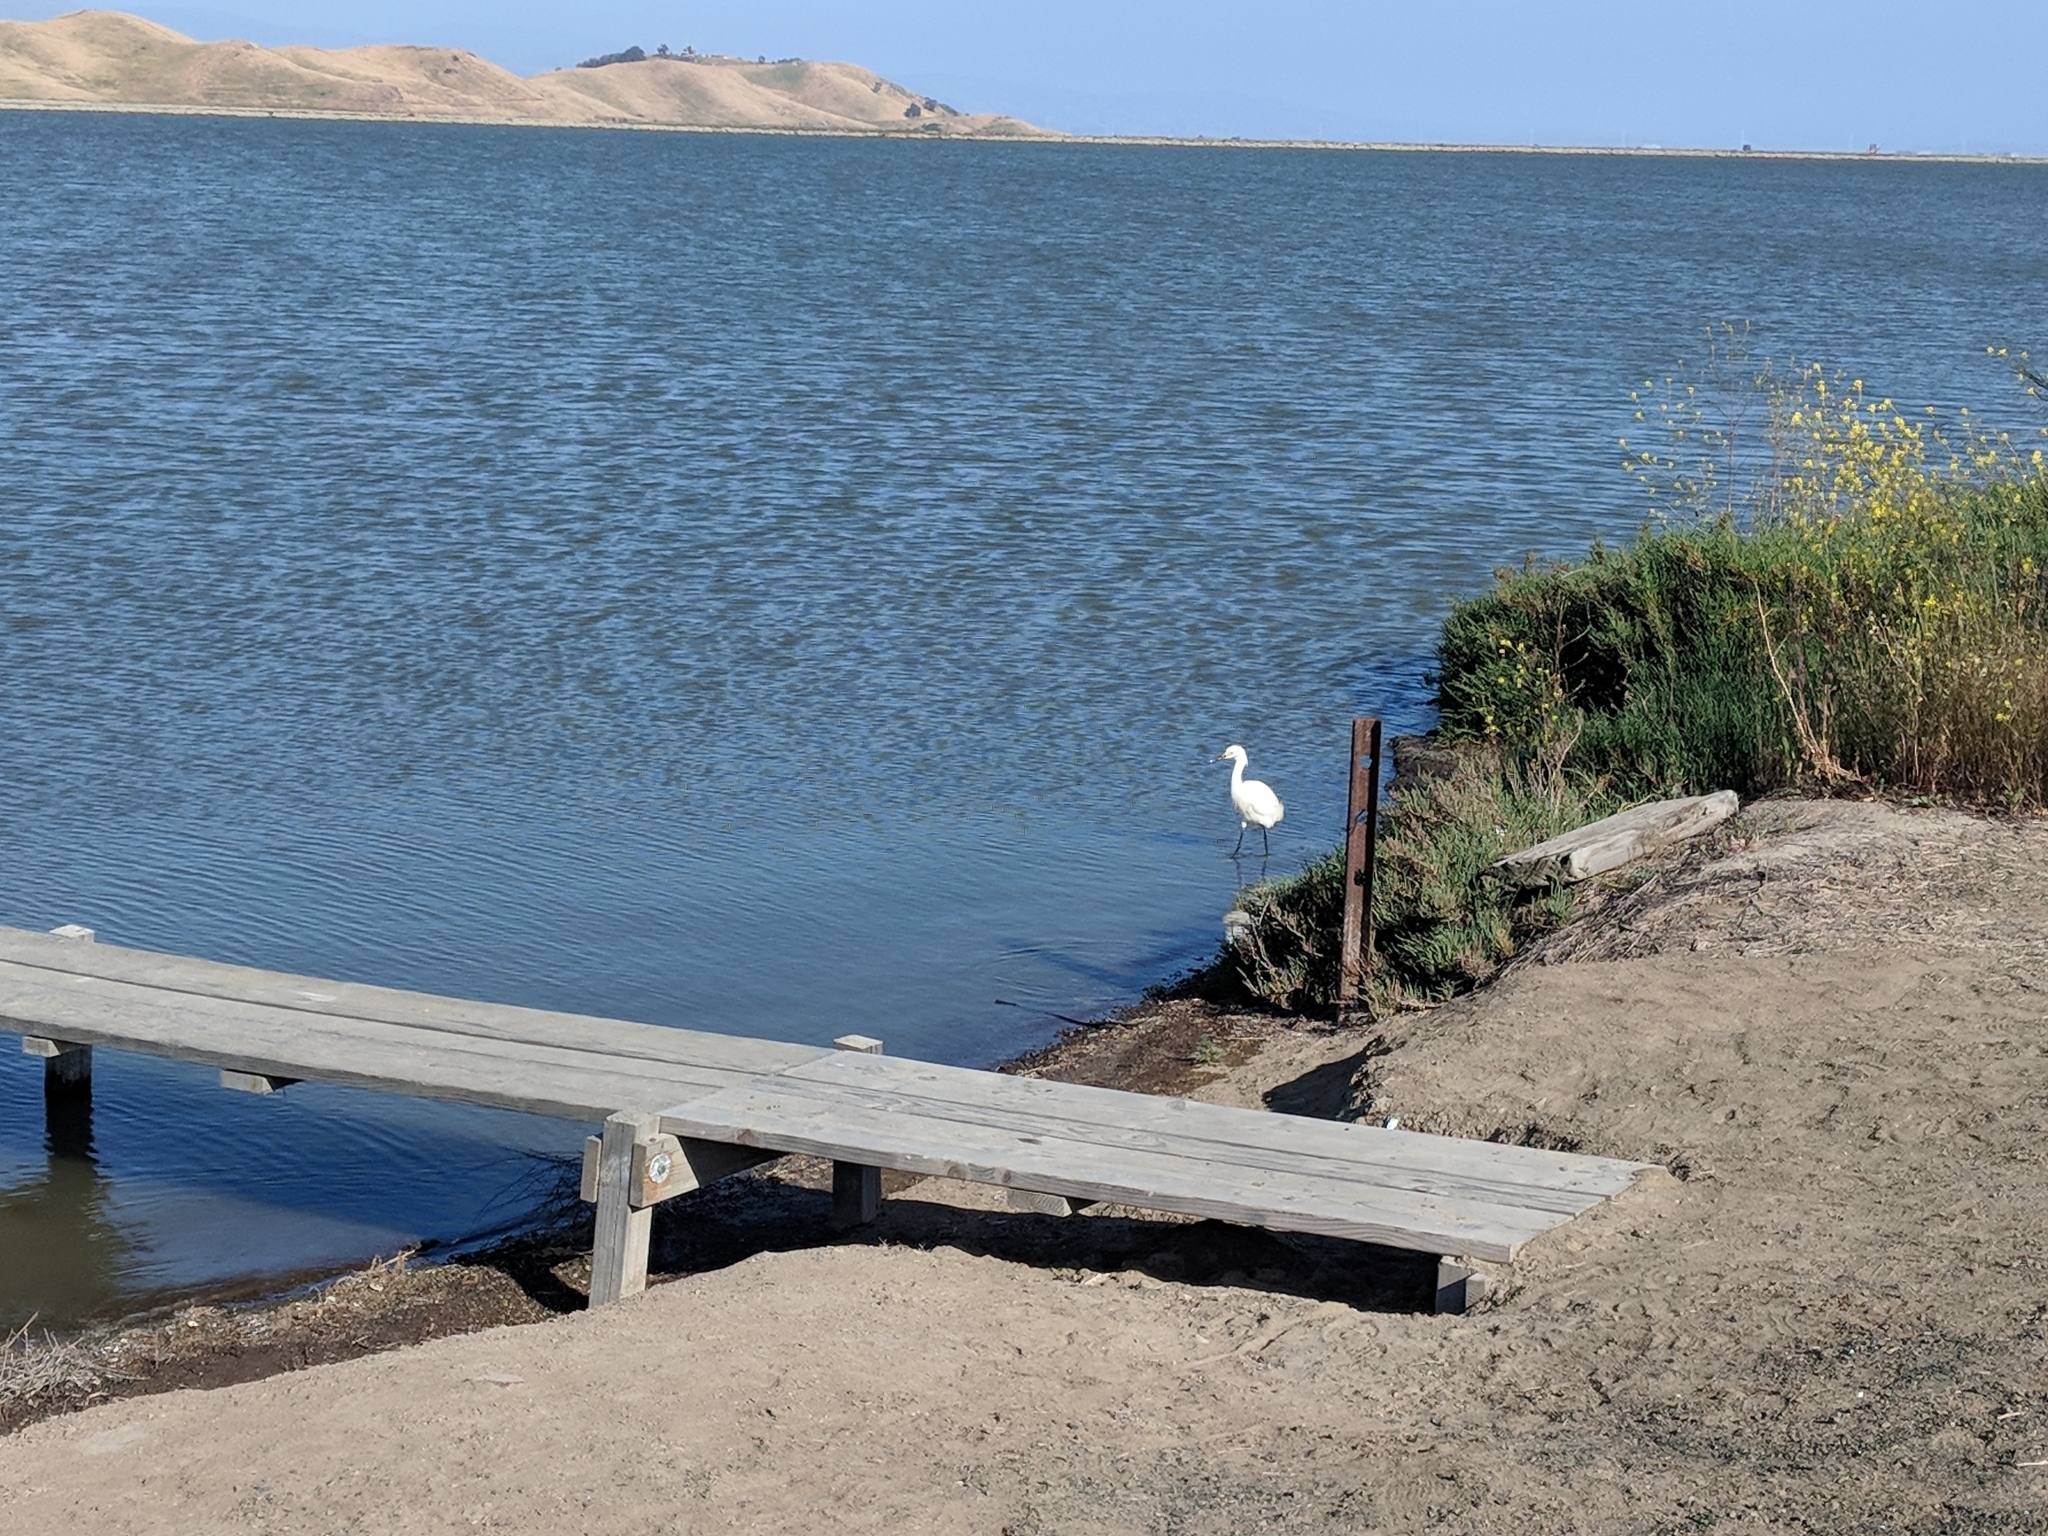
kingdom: Animalia
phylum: Chordata
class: Aves
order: Pelecaniformes
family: Ardeidae
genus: Egretta
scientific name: Egretta thula
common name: Snowy egret
